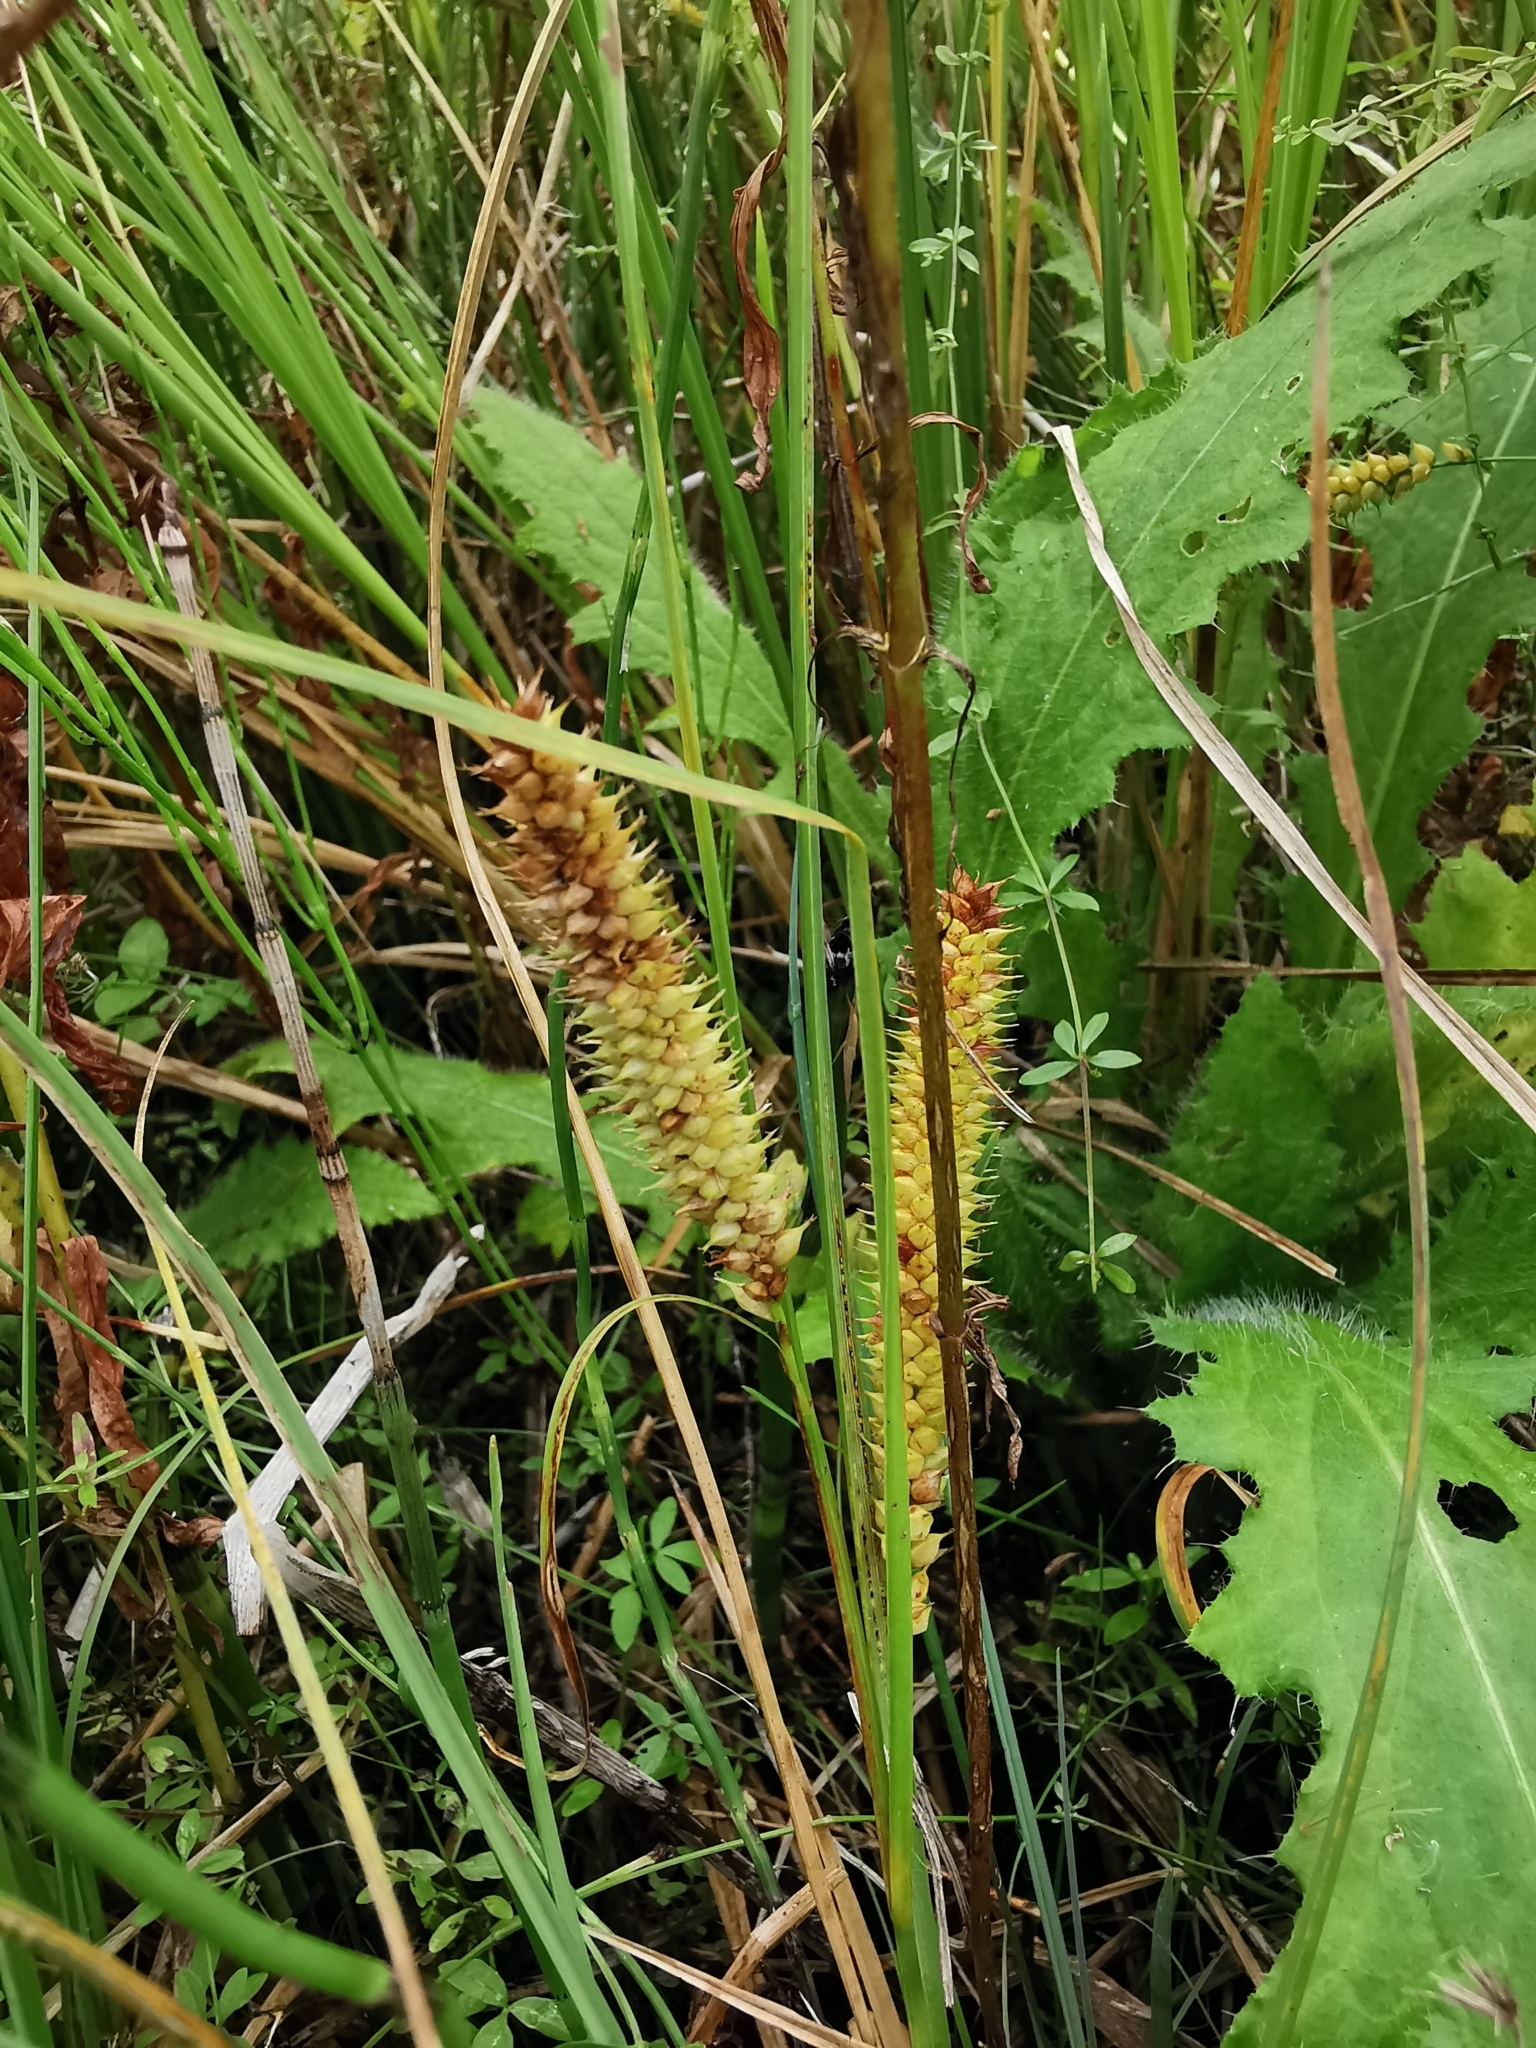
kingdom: Plantae
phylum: Tracheophyta
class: Liliopsida
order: Poales
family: Cyperaceae
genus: Carex
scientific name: Carex rostrata
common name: Bottle sedge
